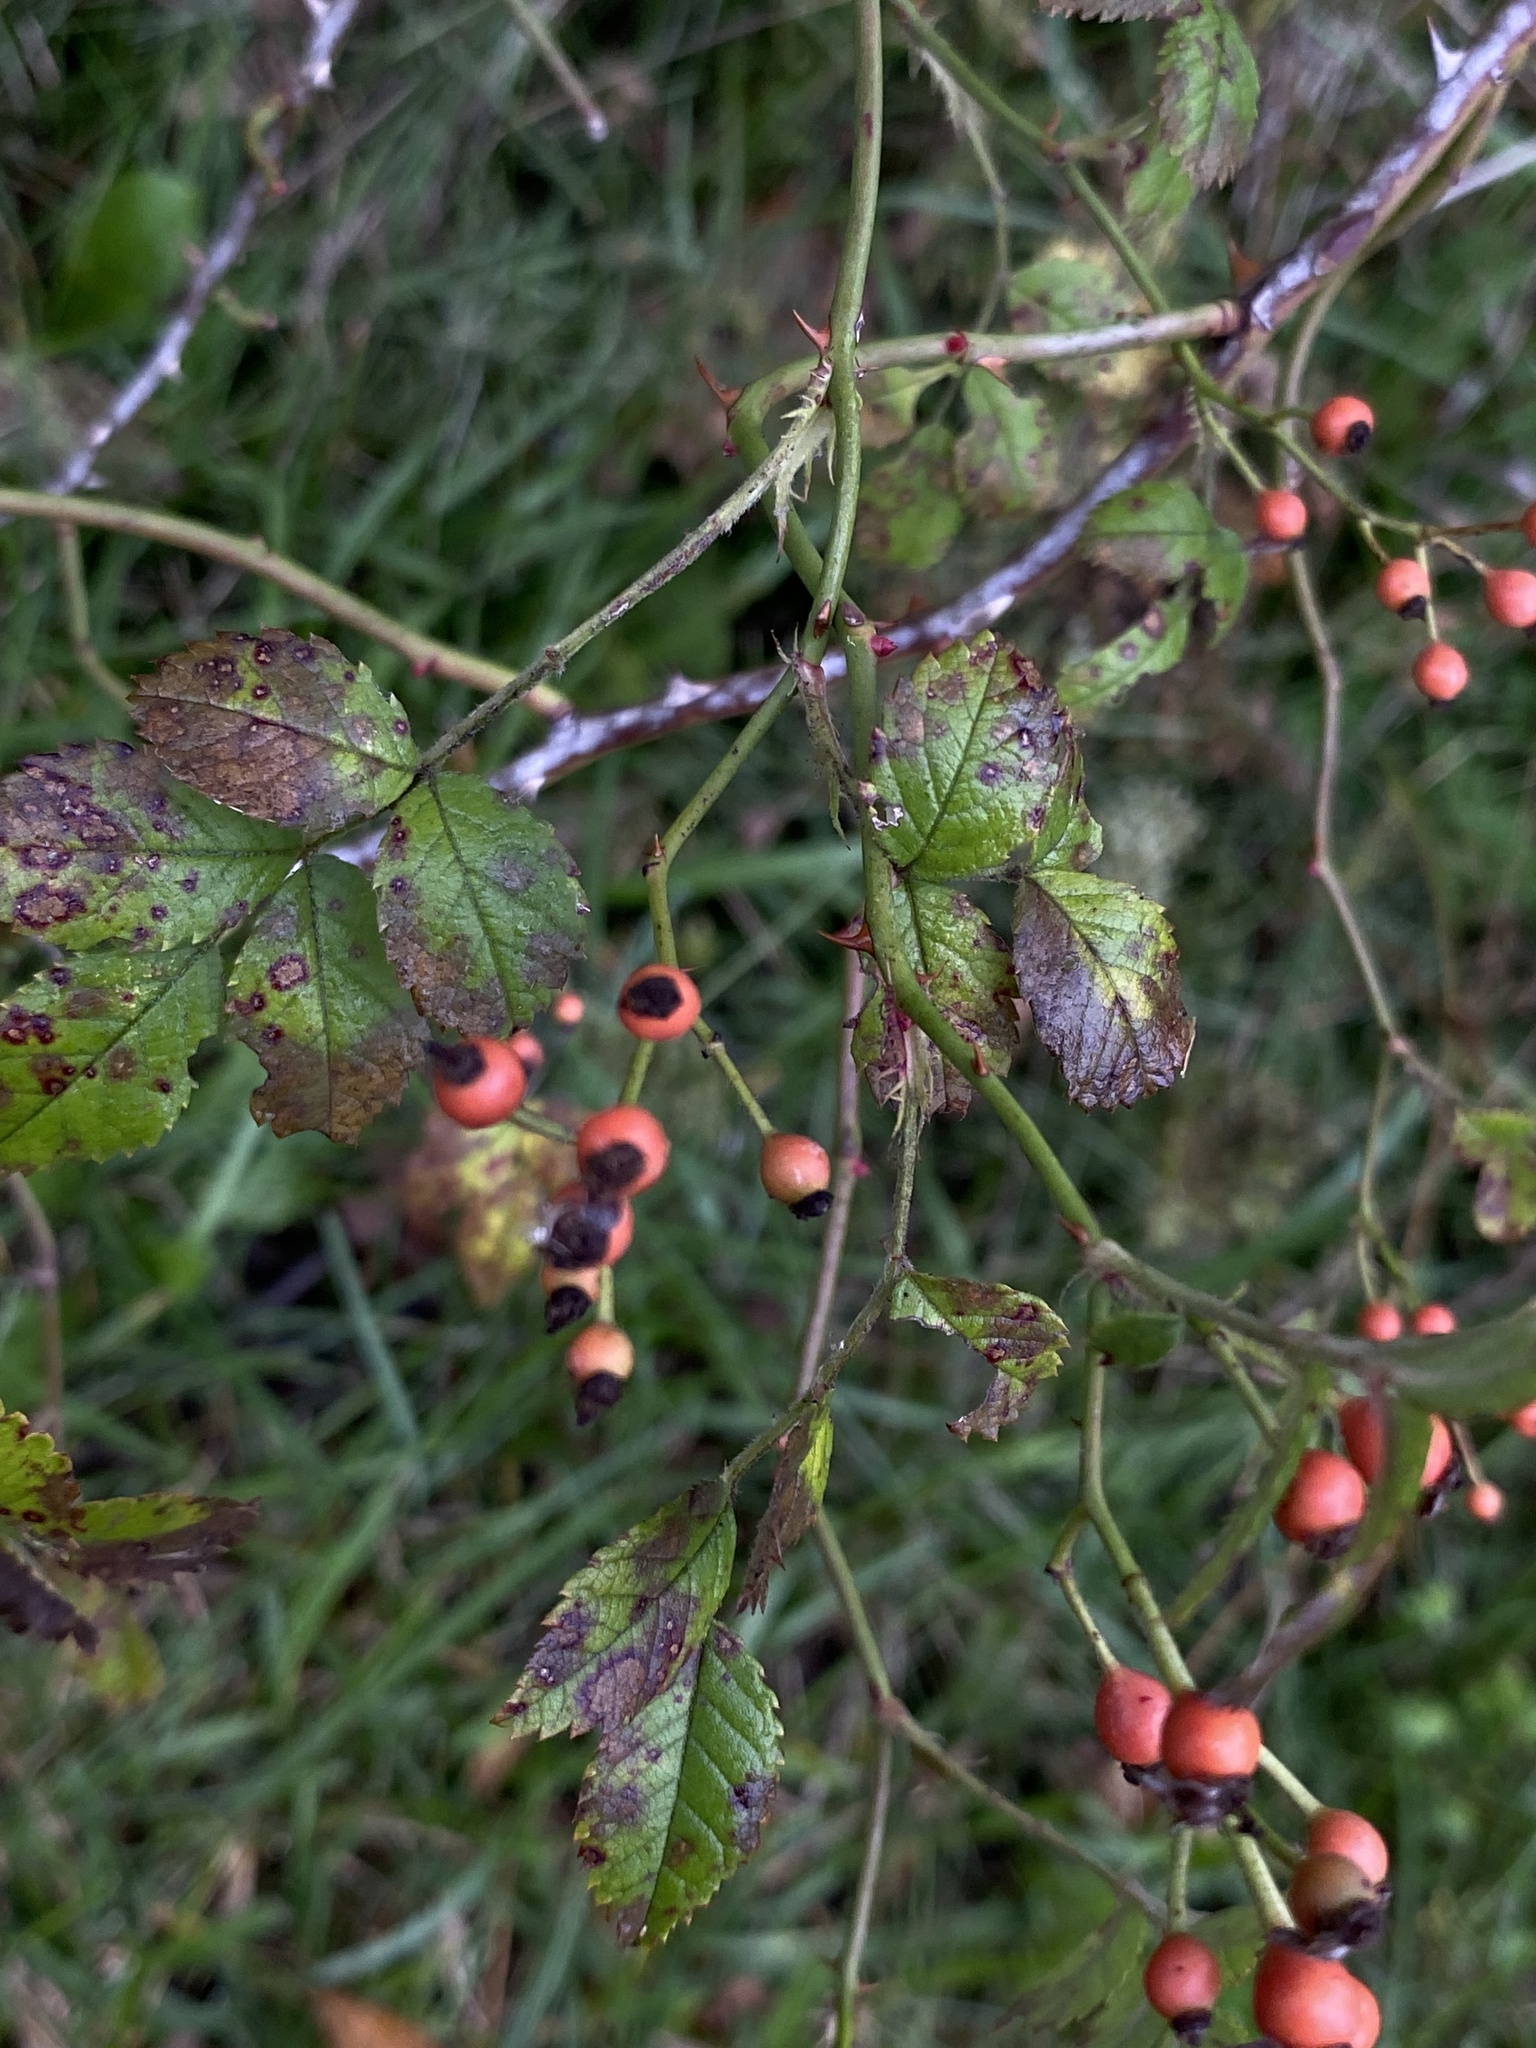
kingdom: Plantae
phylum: Tracheophyta
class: Magnoliopsida
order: Rosales
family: Rosaceae
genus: Rosa
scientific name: Rosa multiflora
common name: Multiflora rose
